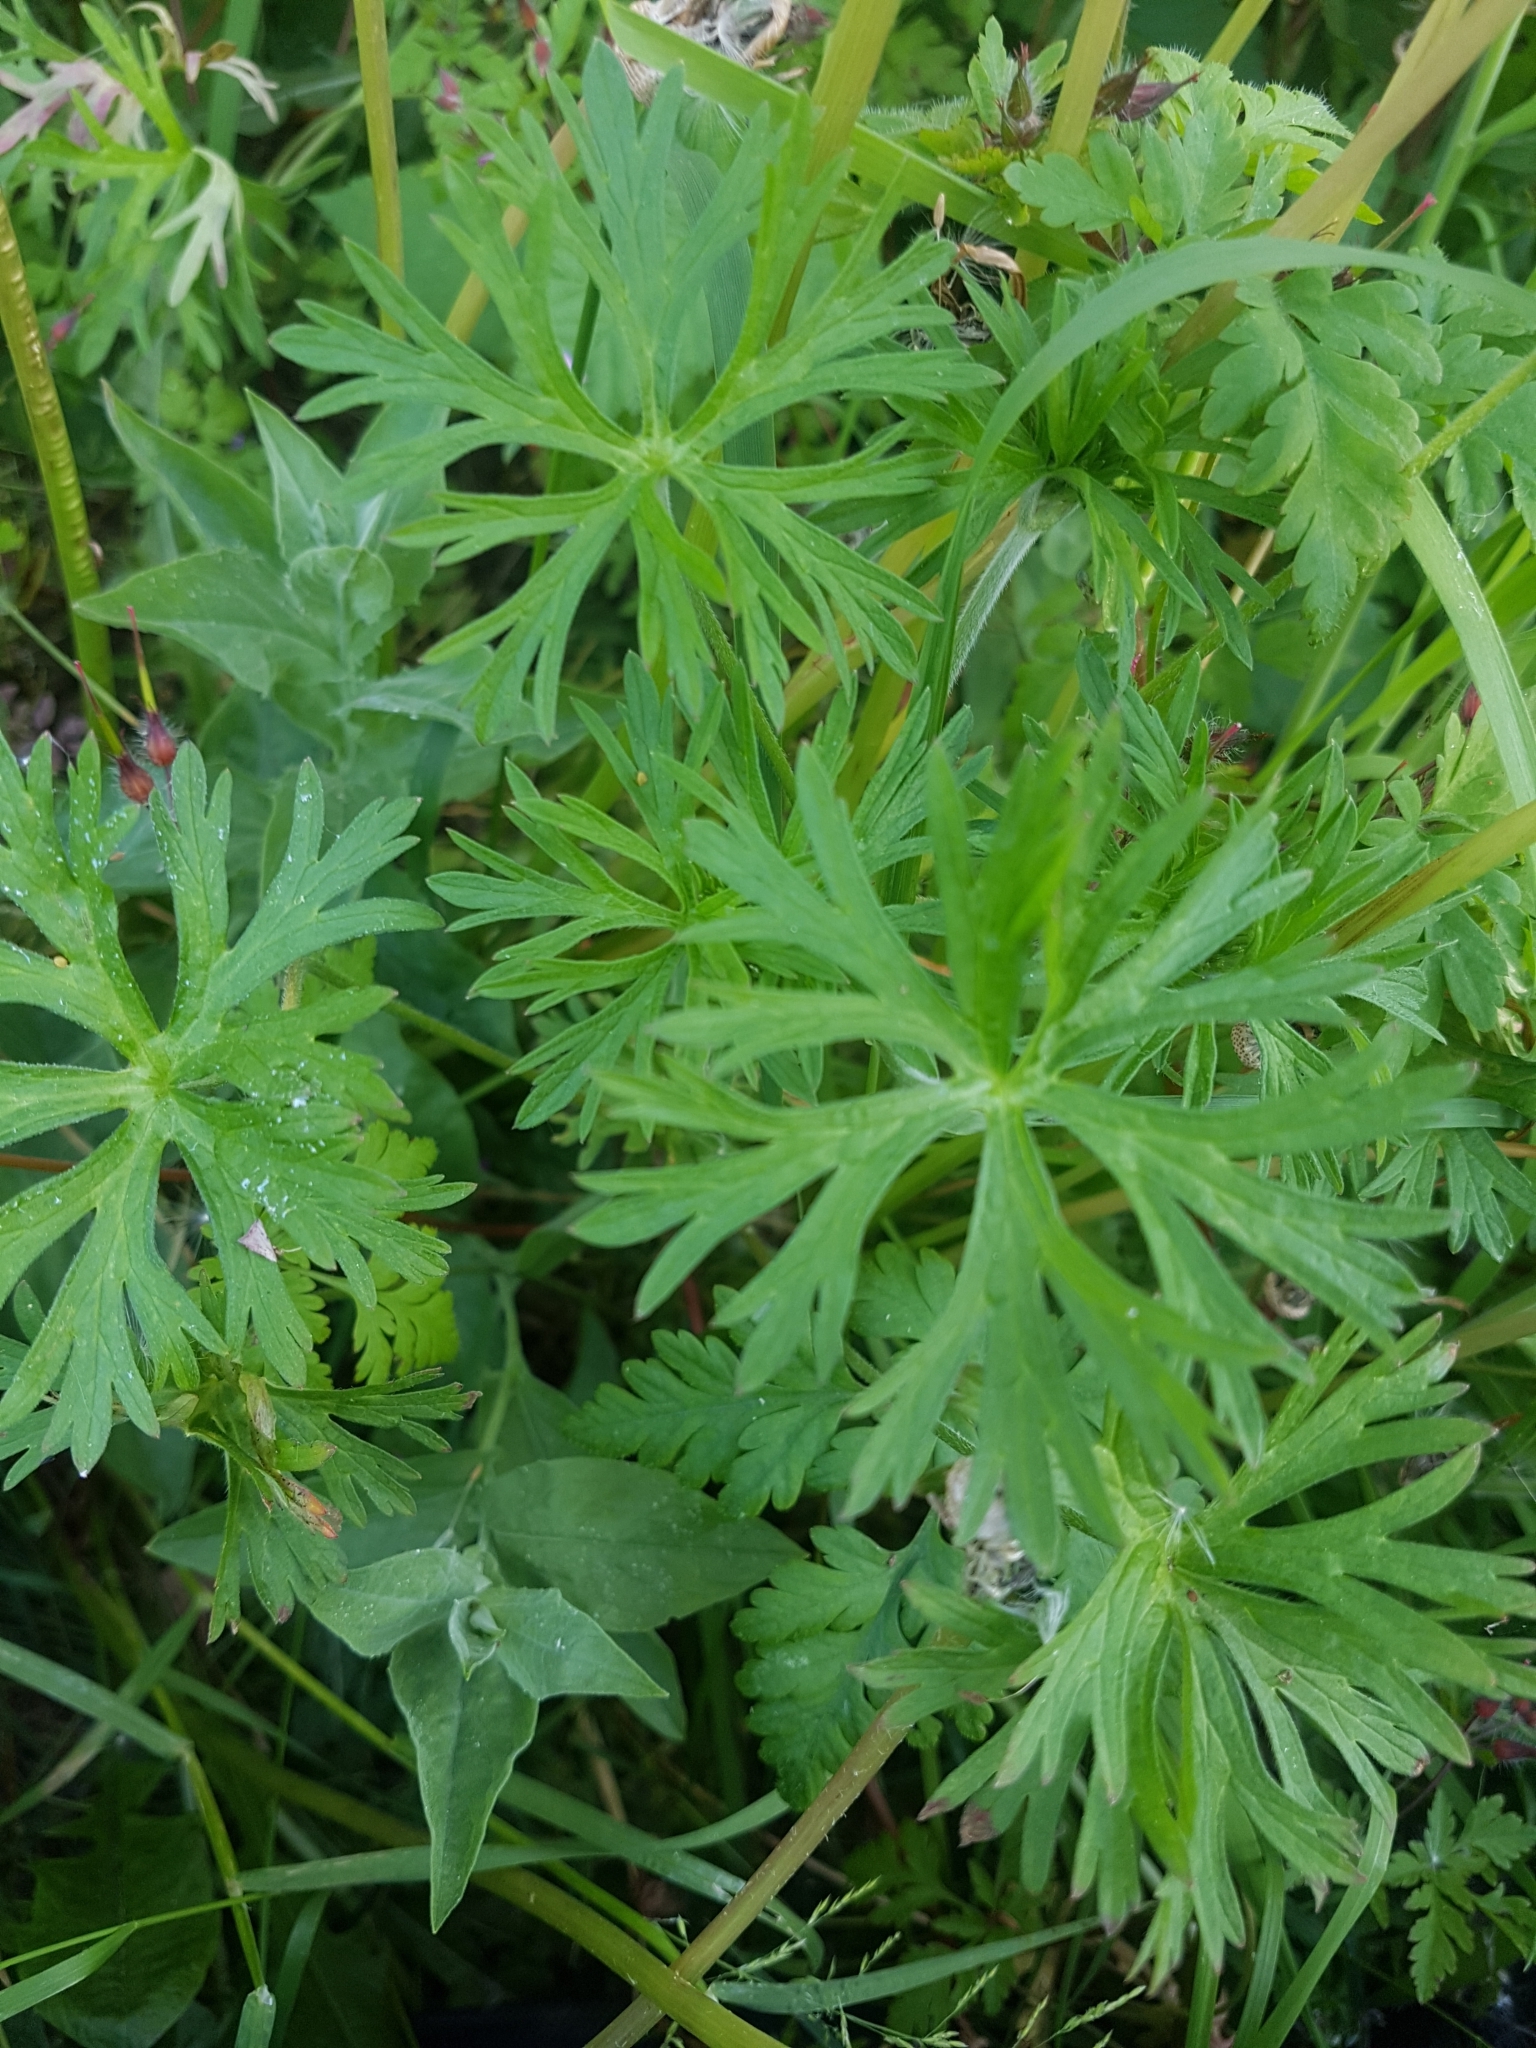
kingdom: Plantae
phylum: Tracheophyta
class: Magnoliopsida
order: Geraniales
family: Geraniaceae
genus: Geranium
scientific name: Geranium dissectum
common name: Cut-leaved crane's-bill
